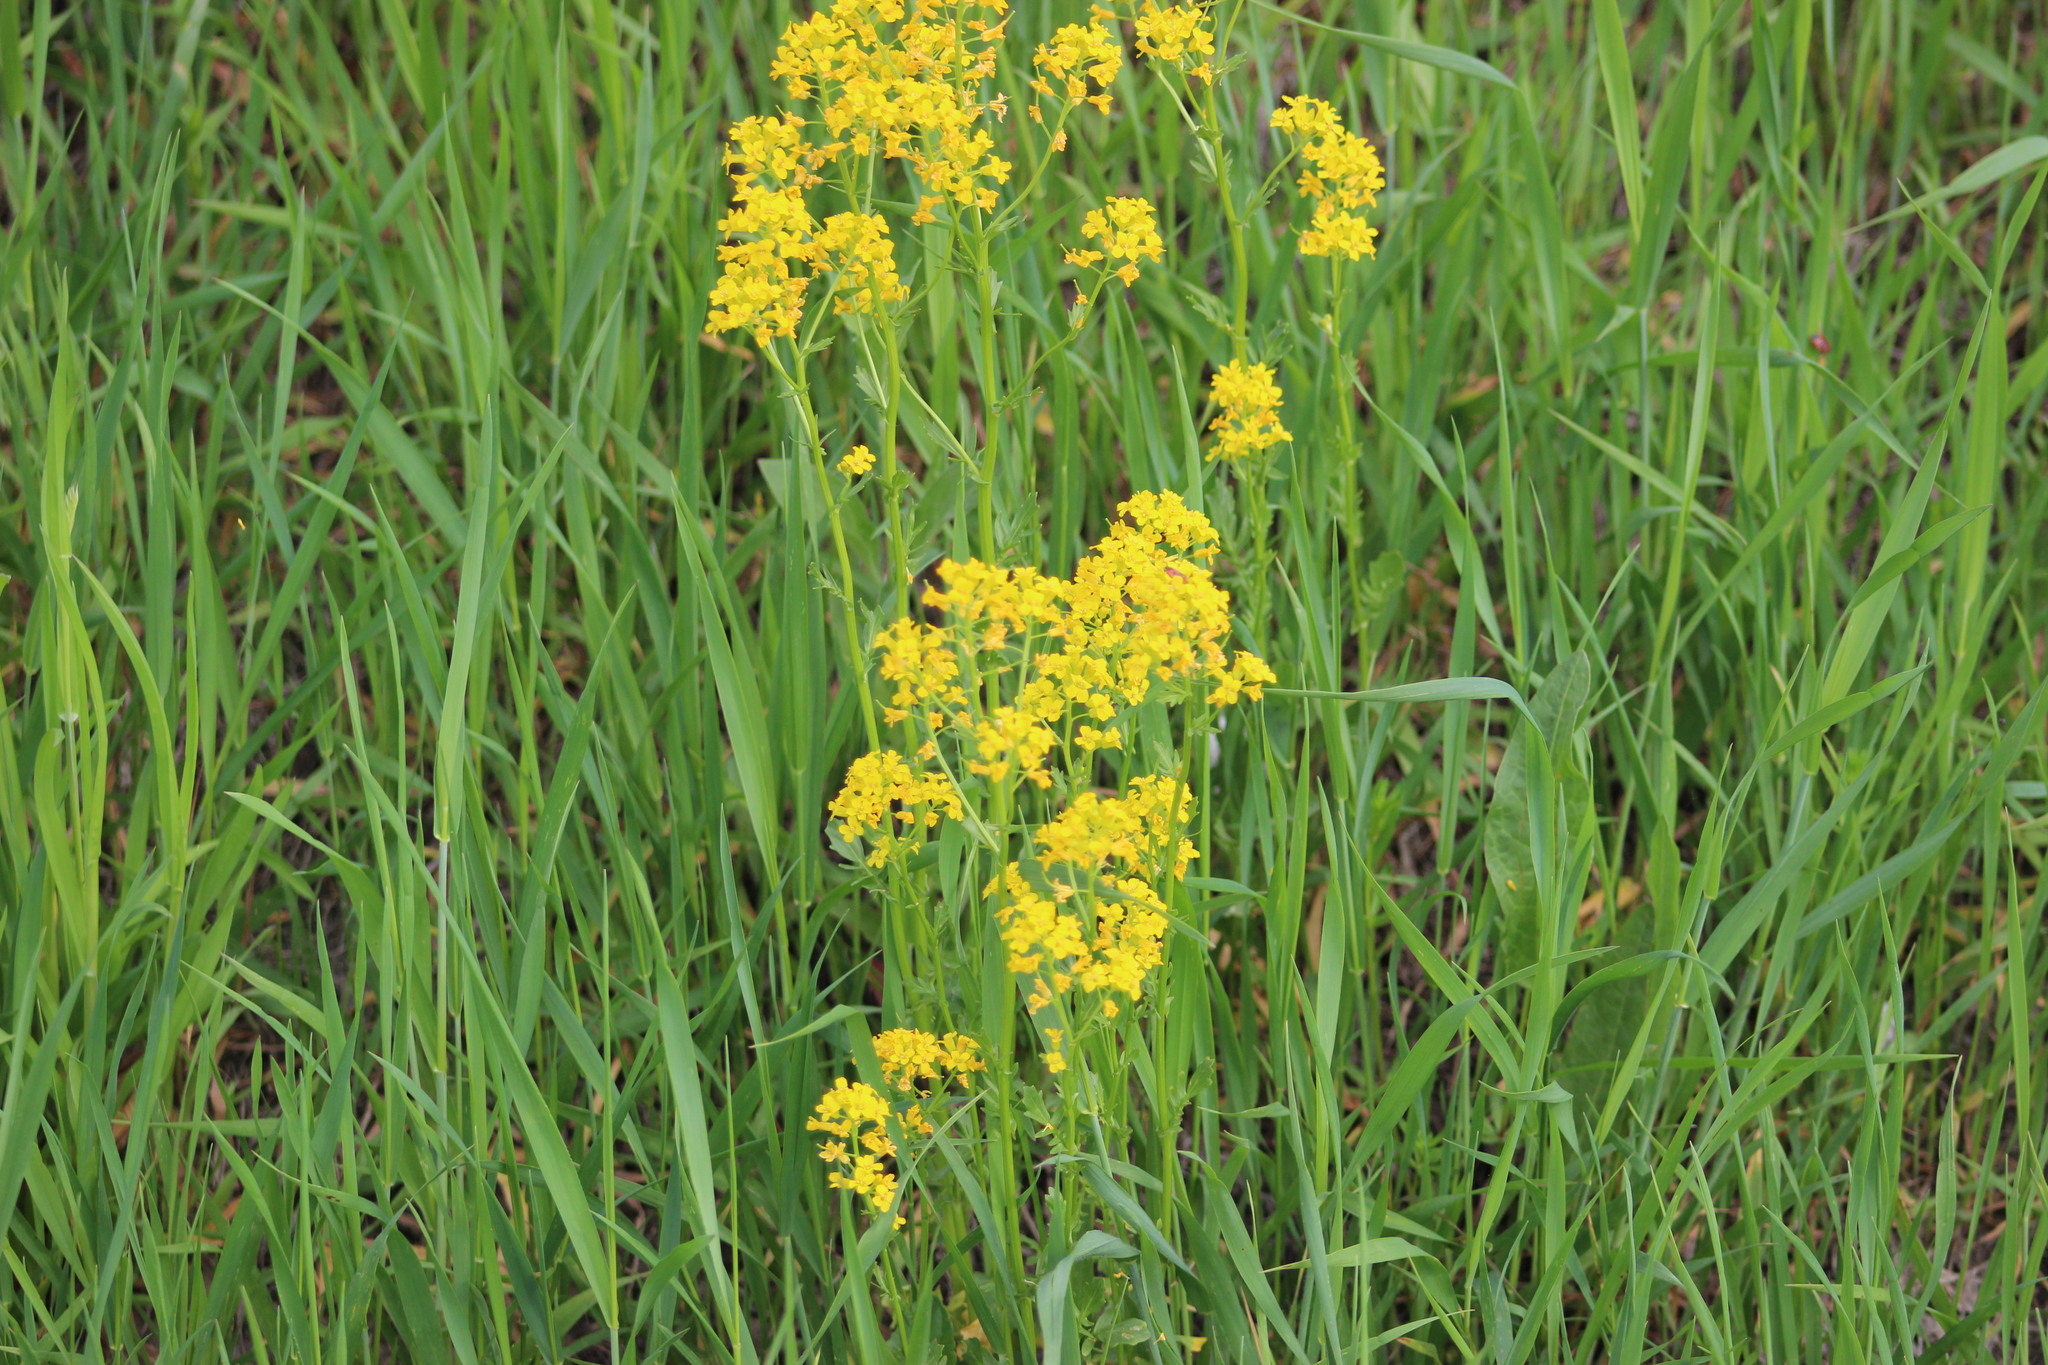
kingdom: Plantae
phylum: Tracheophyta
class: Magnoliopsida
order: Brassicales
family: Brassicaceae
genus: Barbarea
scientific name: Barbarea vulgaris
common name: Cressy-greens
